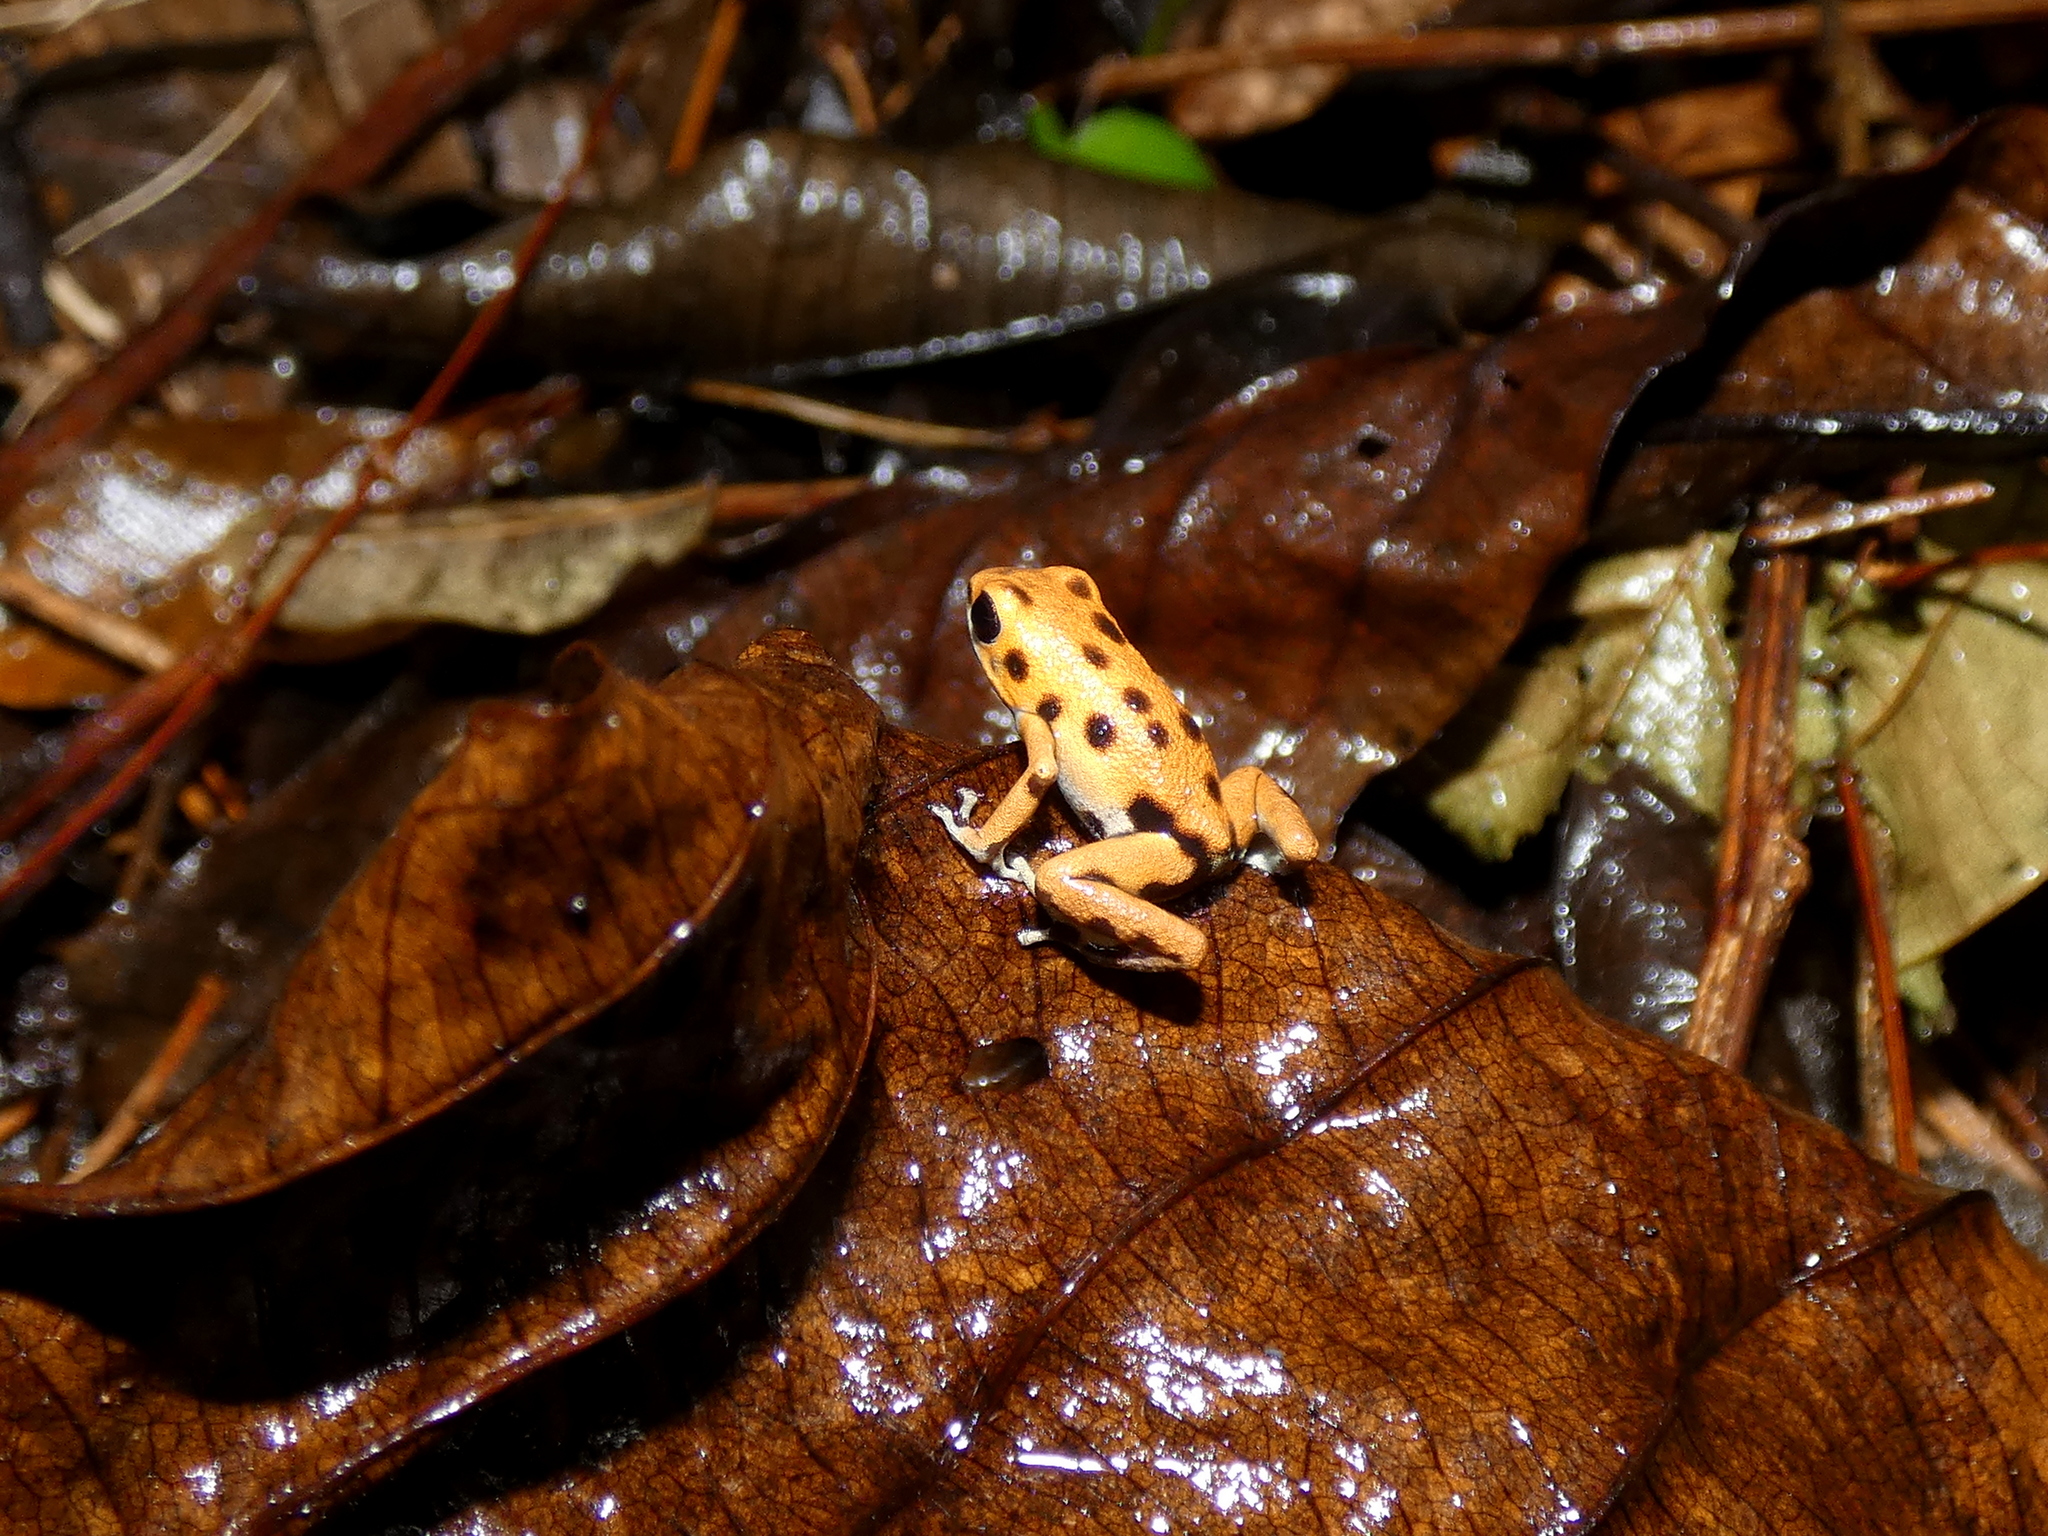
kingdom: Animalia
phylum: Chordata
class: Amphibia
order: Anura
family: Dendrobatidae
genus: Oophaga
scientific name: Oophaga pumilio
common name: Flaming poison frog
